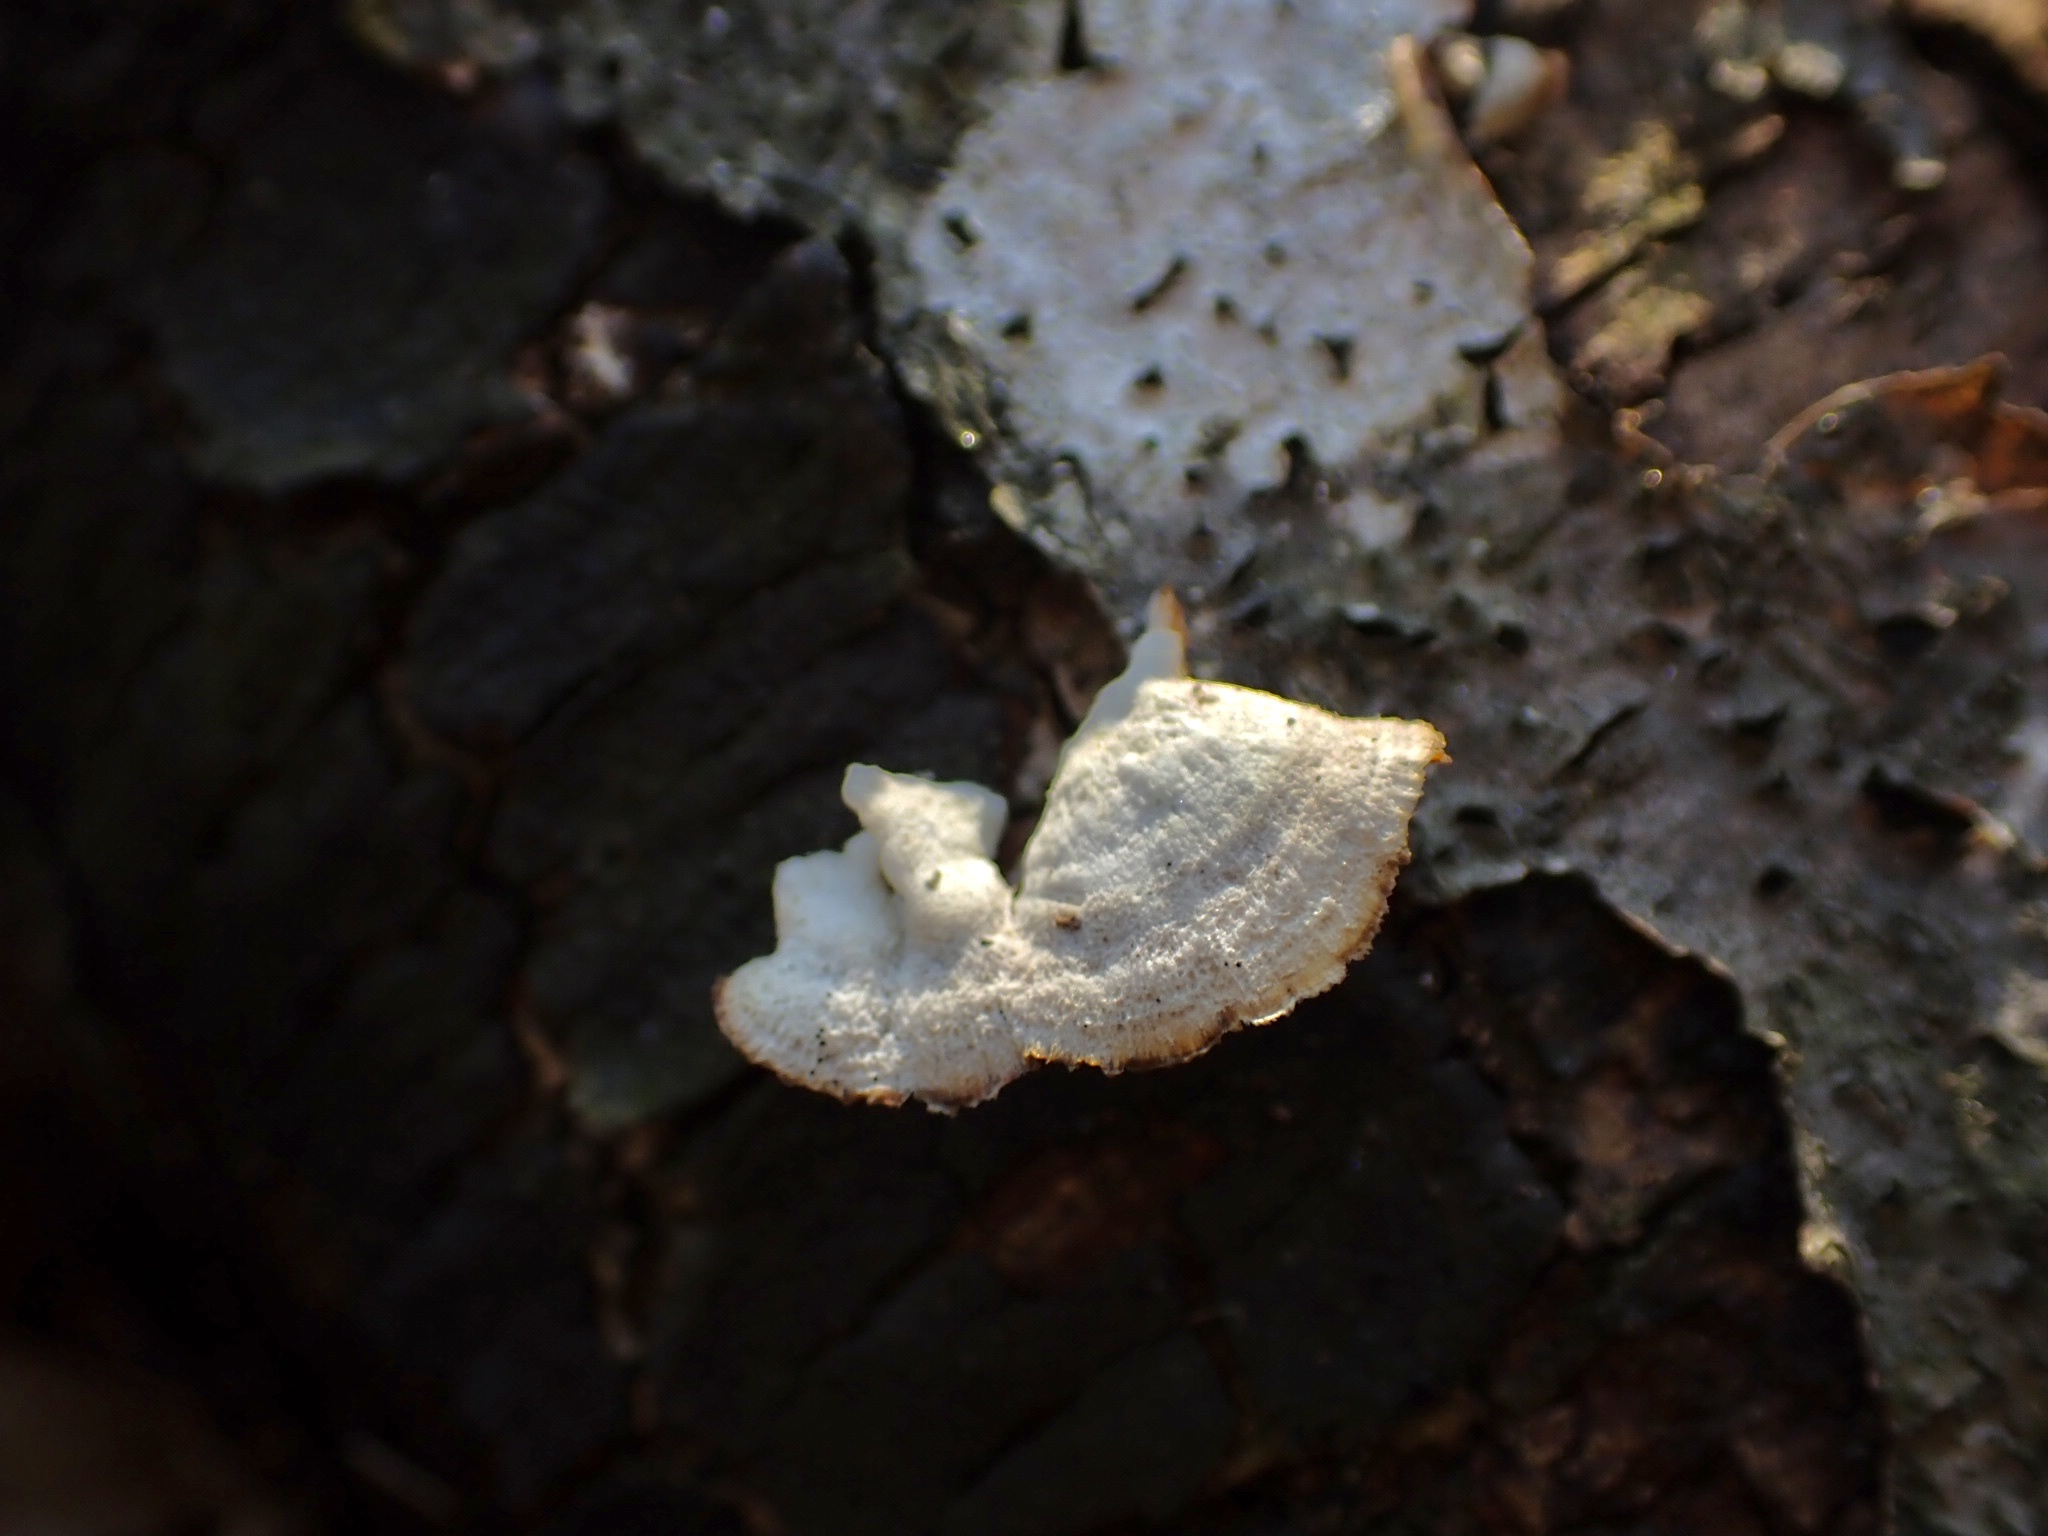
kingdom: Fungi
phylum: Basidiomycota
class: Agaricomycetes
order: Polyporales
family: Polyporaceae
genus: Poronidulus
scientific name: Poronidulus conchifer
